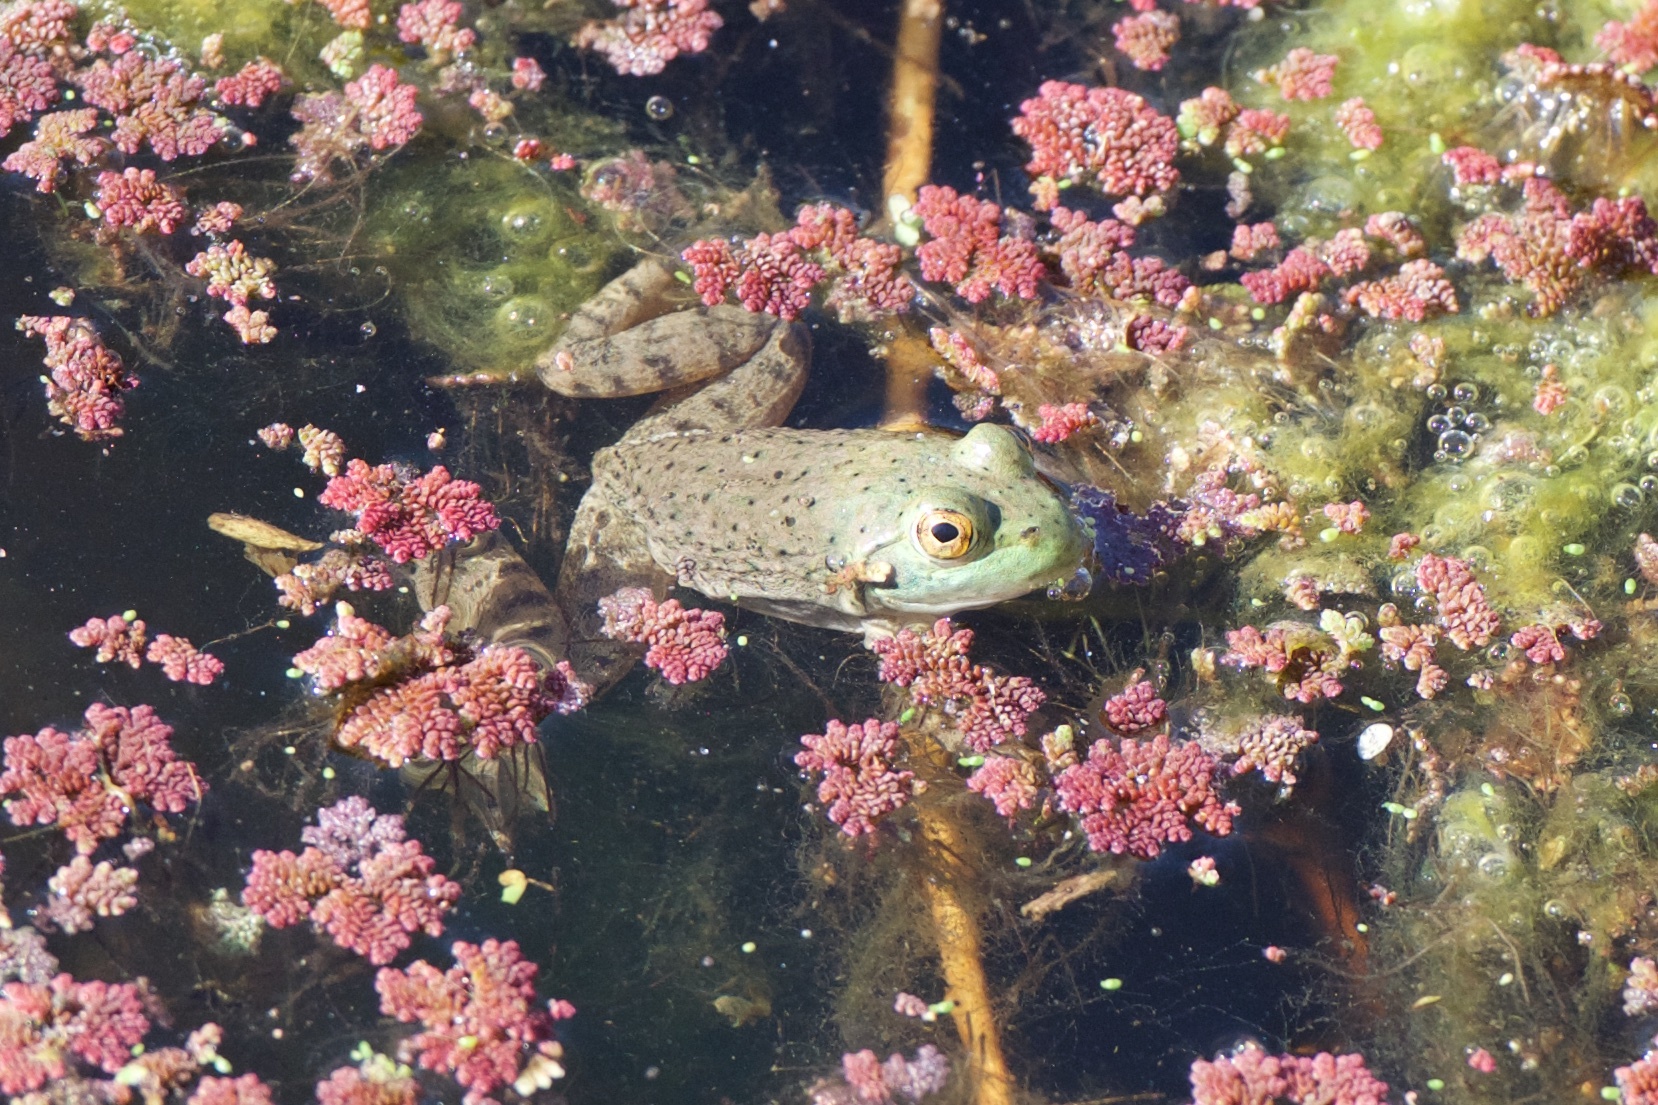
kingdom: Animalia
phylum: Chordata
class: Amphibia
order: Anura
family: Ranidae
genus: Lithobates
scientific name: Lithobates catesbeianus
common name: American bullfrog
